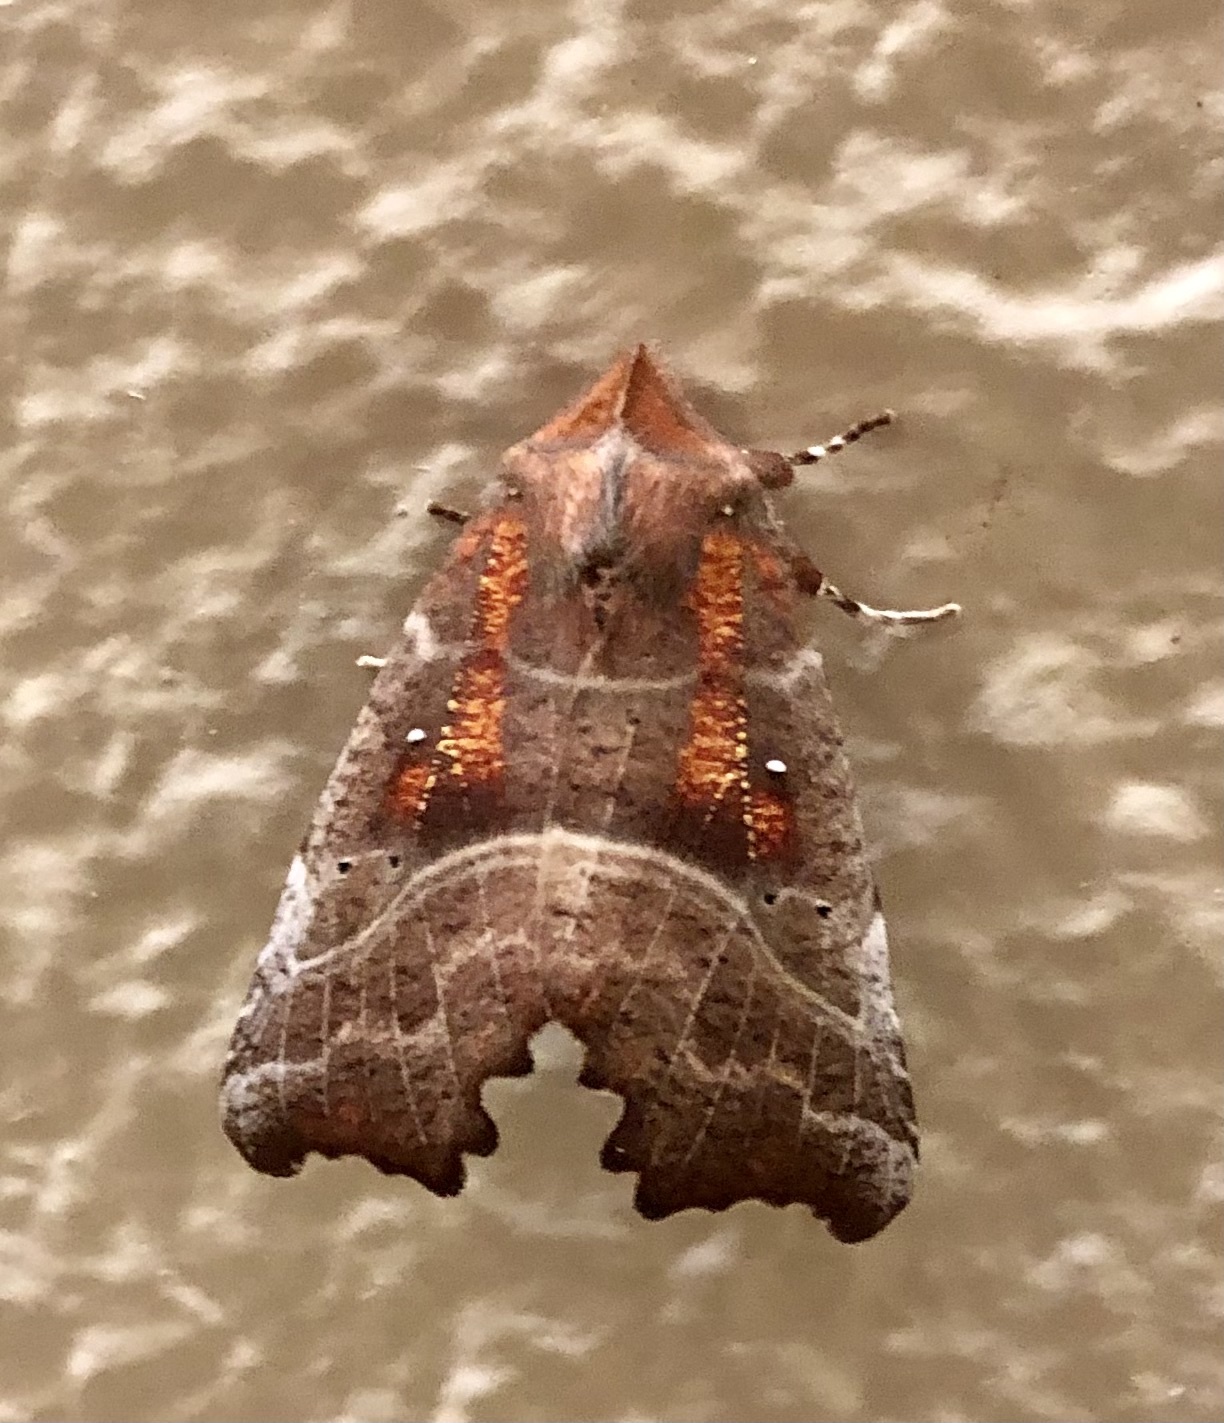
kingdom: Animalia
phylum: Arthropoda
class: Insecta
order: Lepidoptera
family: Erebidae
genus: Scoliopteryx
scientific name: Scoliopteryx libatrix
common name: Herald
